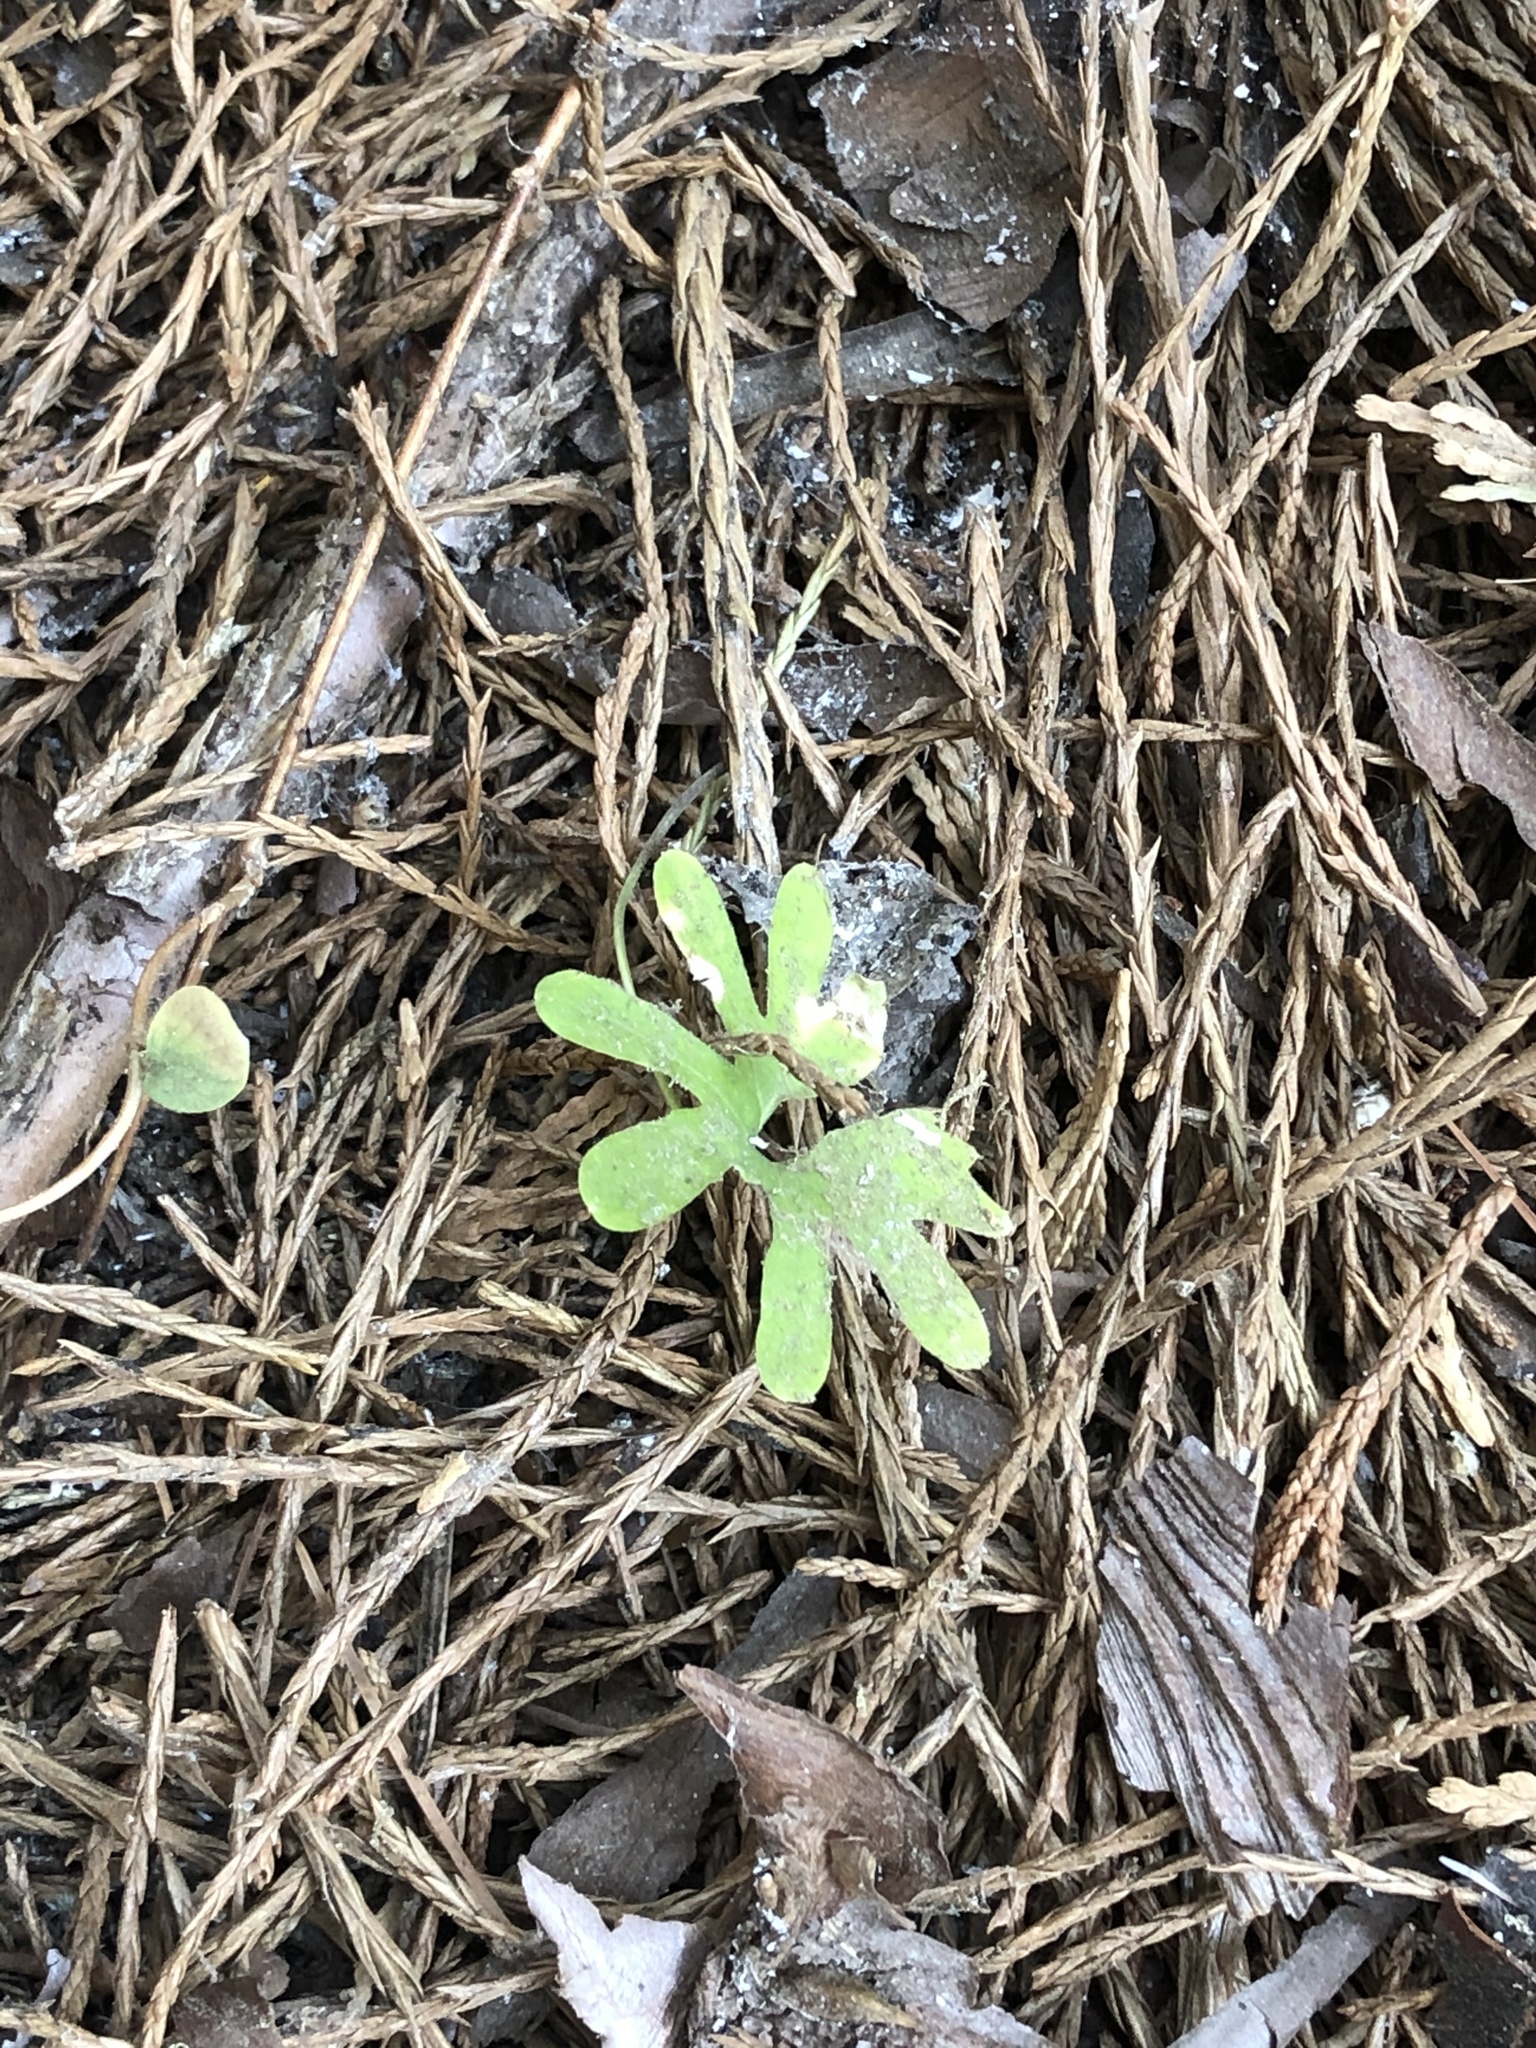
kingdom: Plantae
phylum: Tracheophyta
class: Magnoliopsida
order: Malpighiales
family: Violaceae
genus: Viola
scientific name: Viola lobata
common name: Pine violet
